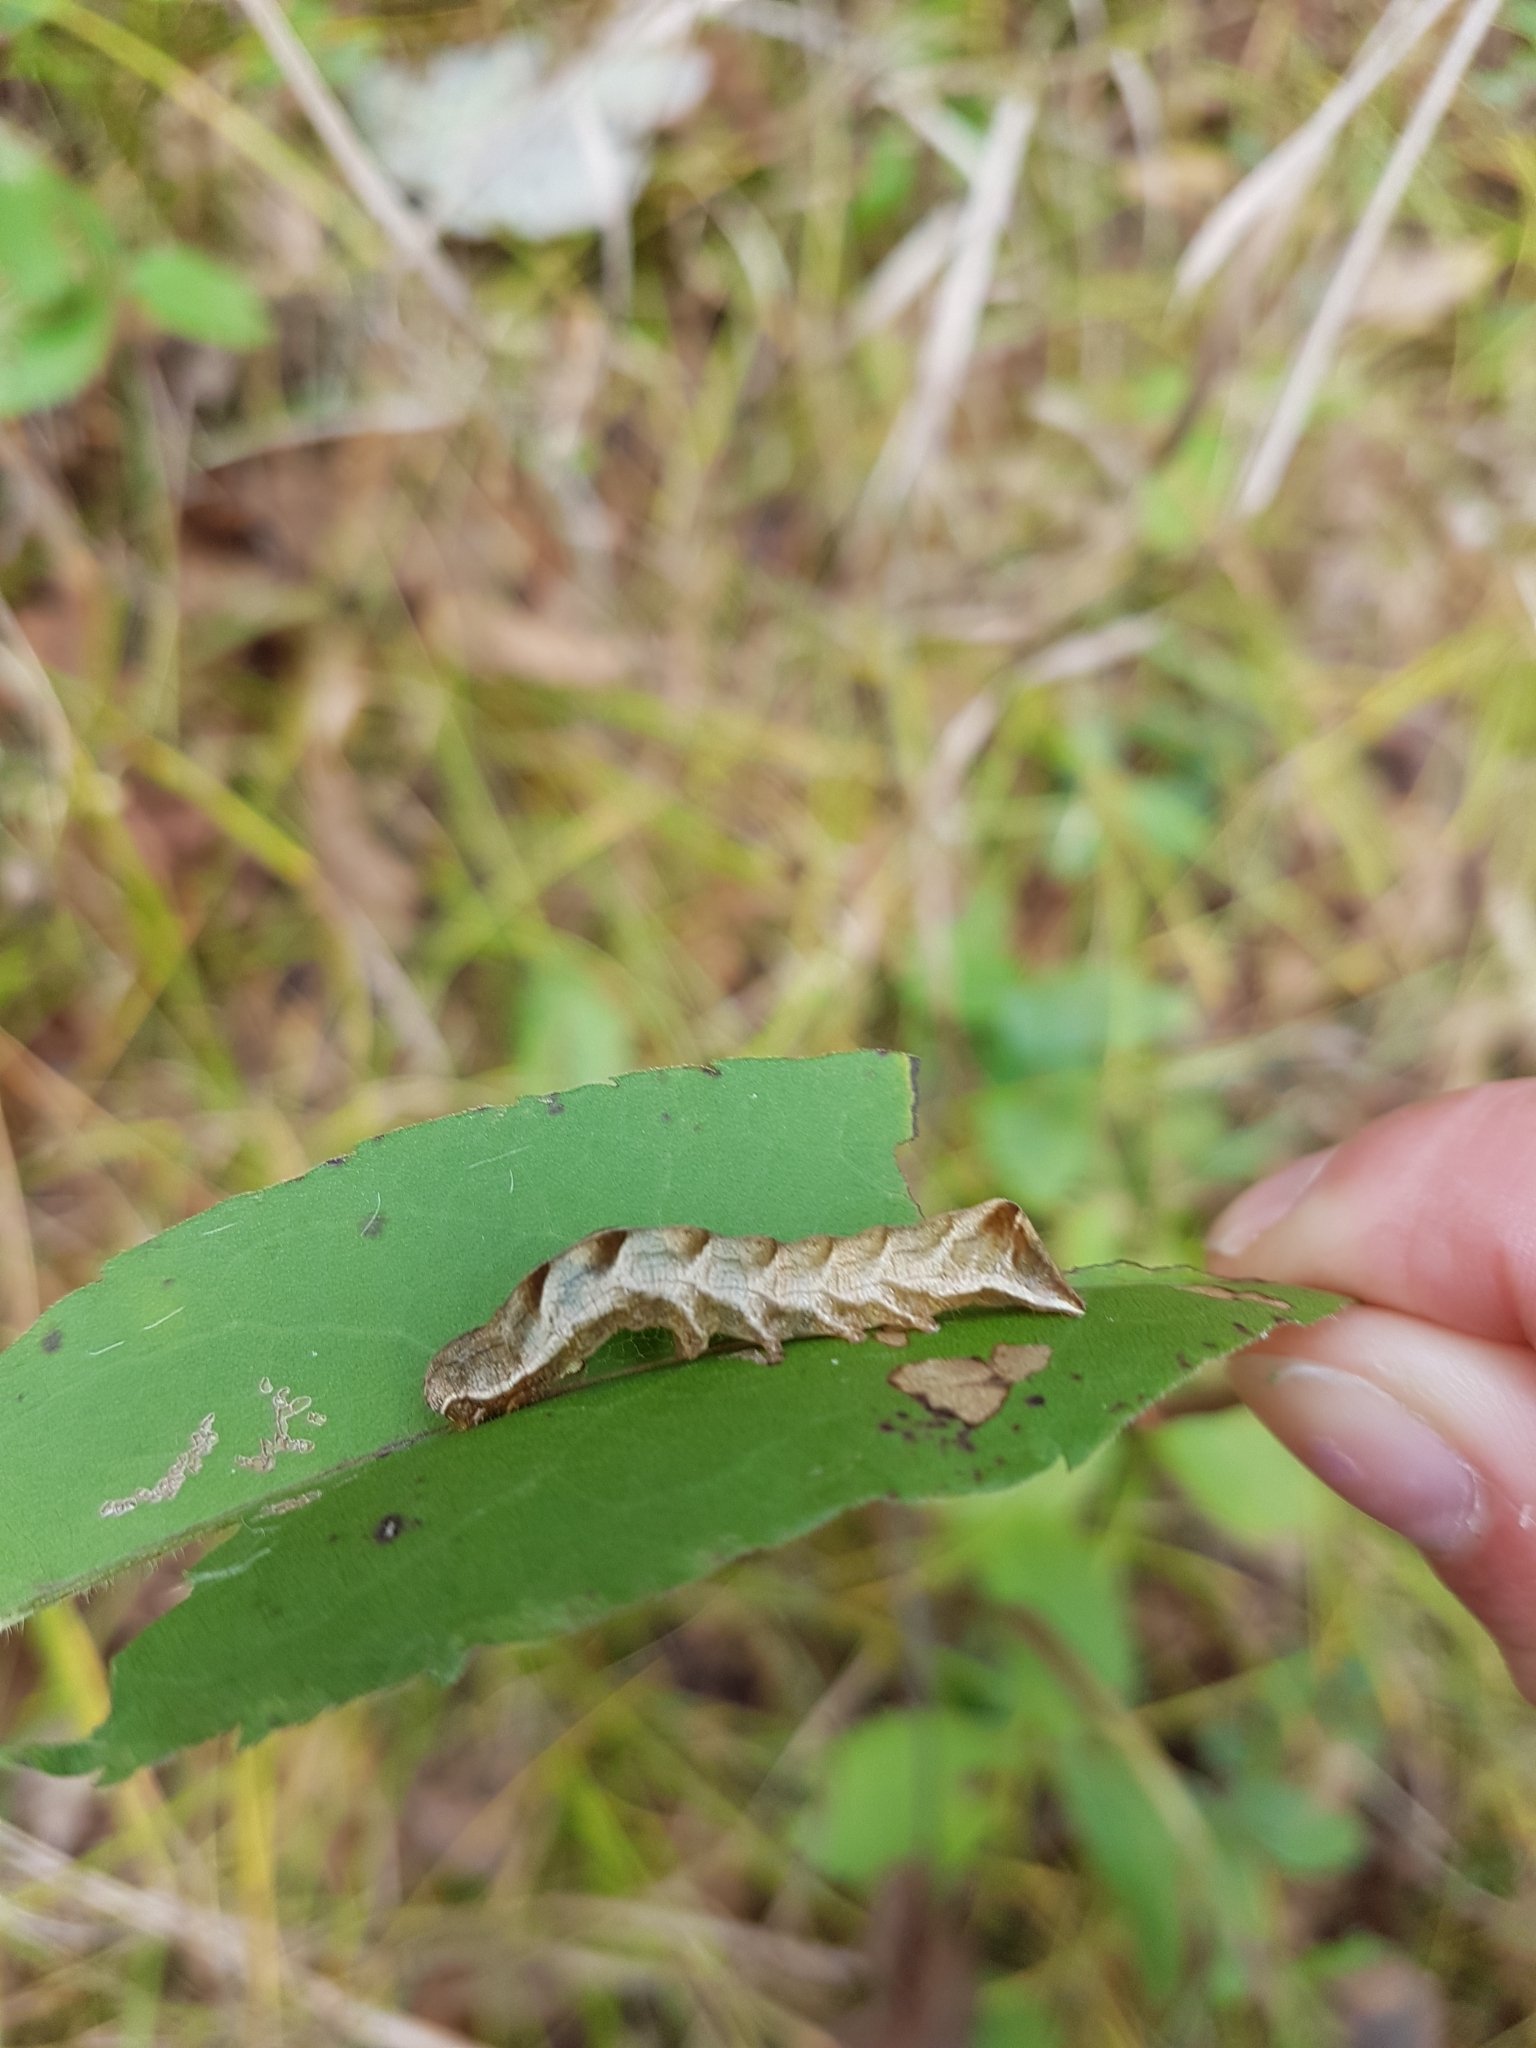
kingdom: Animalia
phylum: Arthropoda
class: Insecta
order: Lepidoptera
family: Noctuidae
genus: Melanchra
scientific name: Melanchra adjuncta
